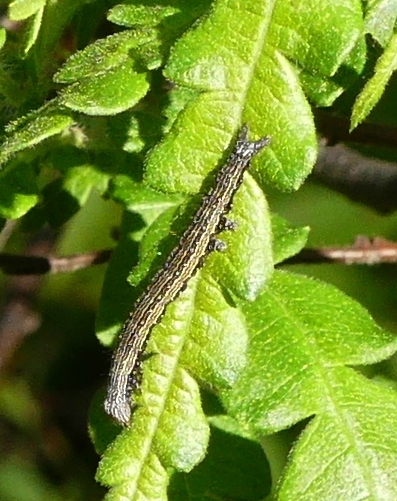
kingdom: Animalia
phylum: Arthropoda
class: Insecta
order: Lepidoptera
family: Erebidae
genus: Catocala
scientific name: Catocala antinympha
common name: Sweetfern underwing
